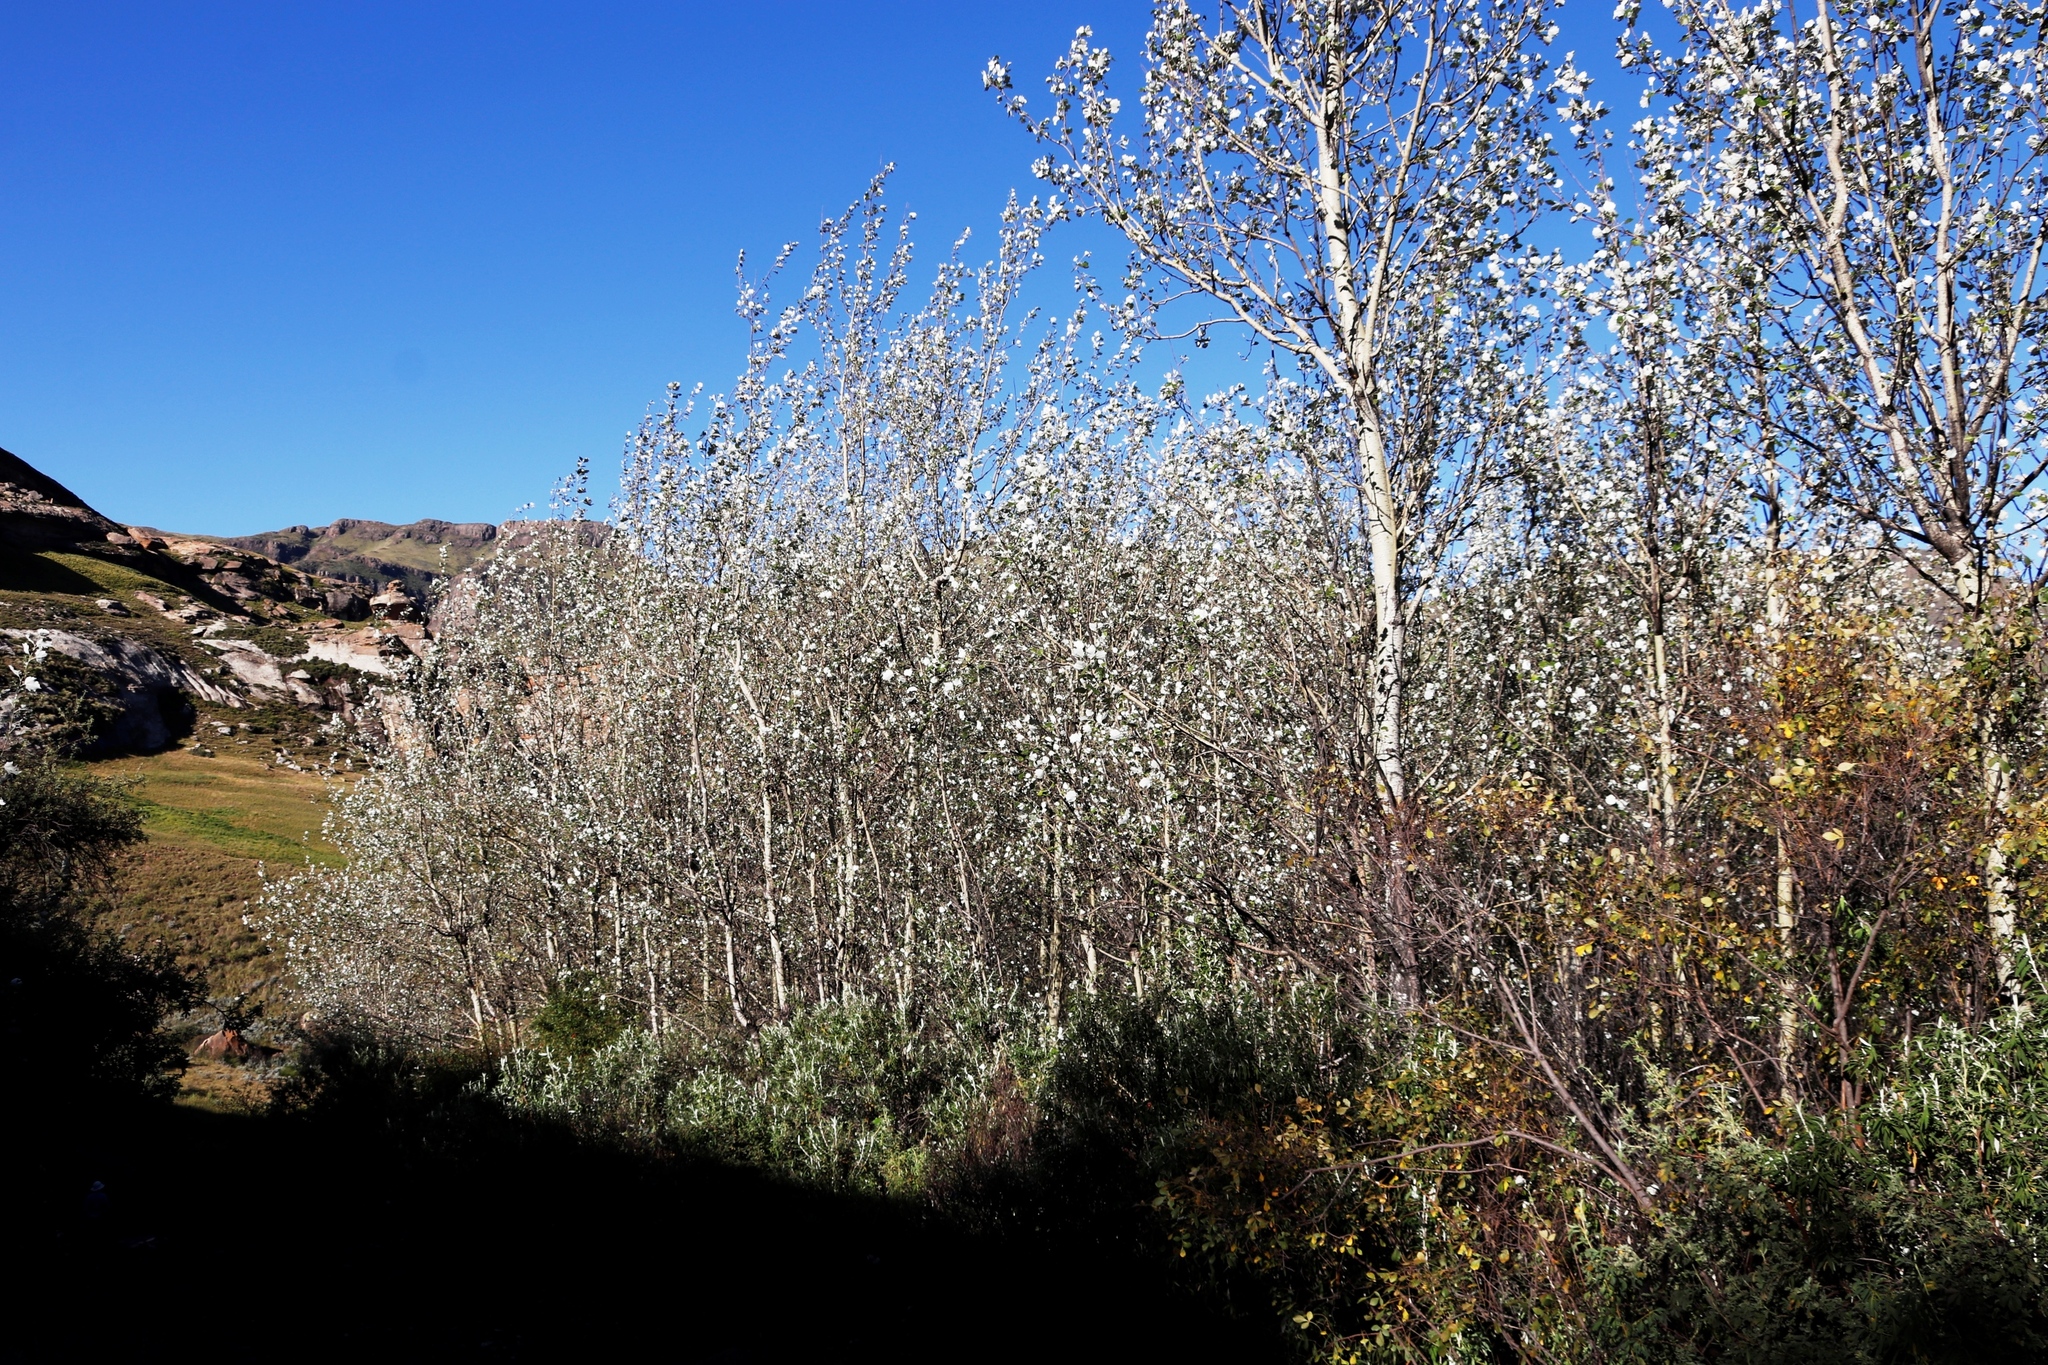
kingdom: Plantae
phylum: Tracheophyta
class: Magnoliopsida
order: Malpighiales
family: Salicaceae
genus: Populus
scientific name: Populus alba
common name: White poplar
